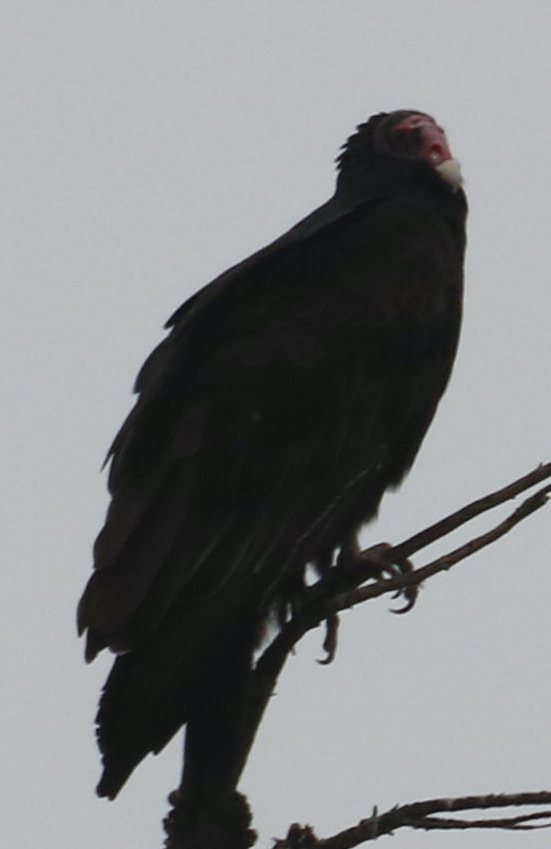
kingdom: Animalia
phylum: Chordata
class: Aves
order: Accipitriformes
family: Cathartidae
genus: Cathartes
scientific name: Cathartes aura
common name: Turkey vulture
